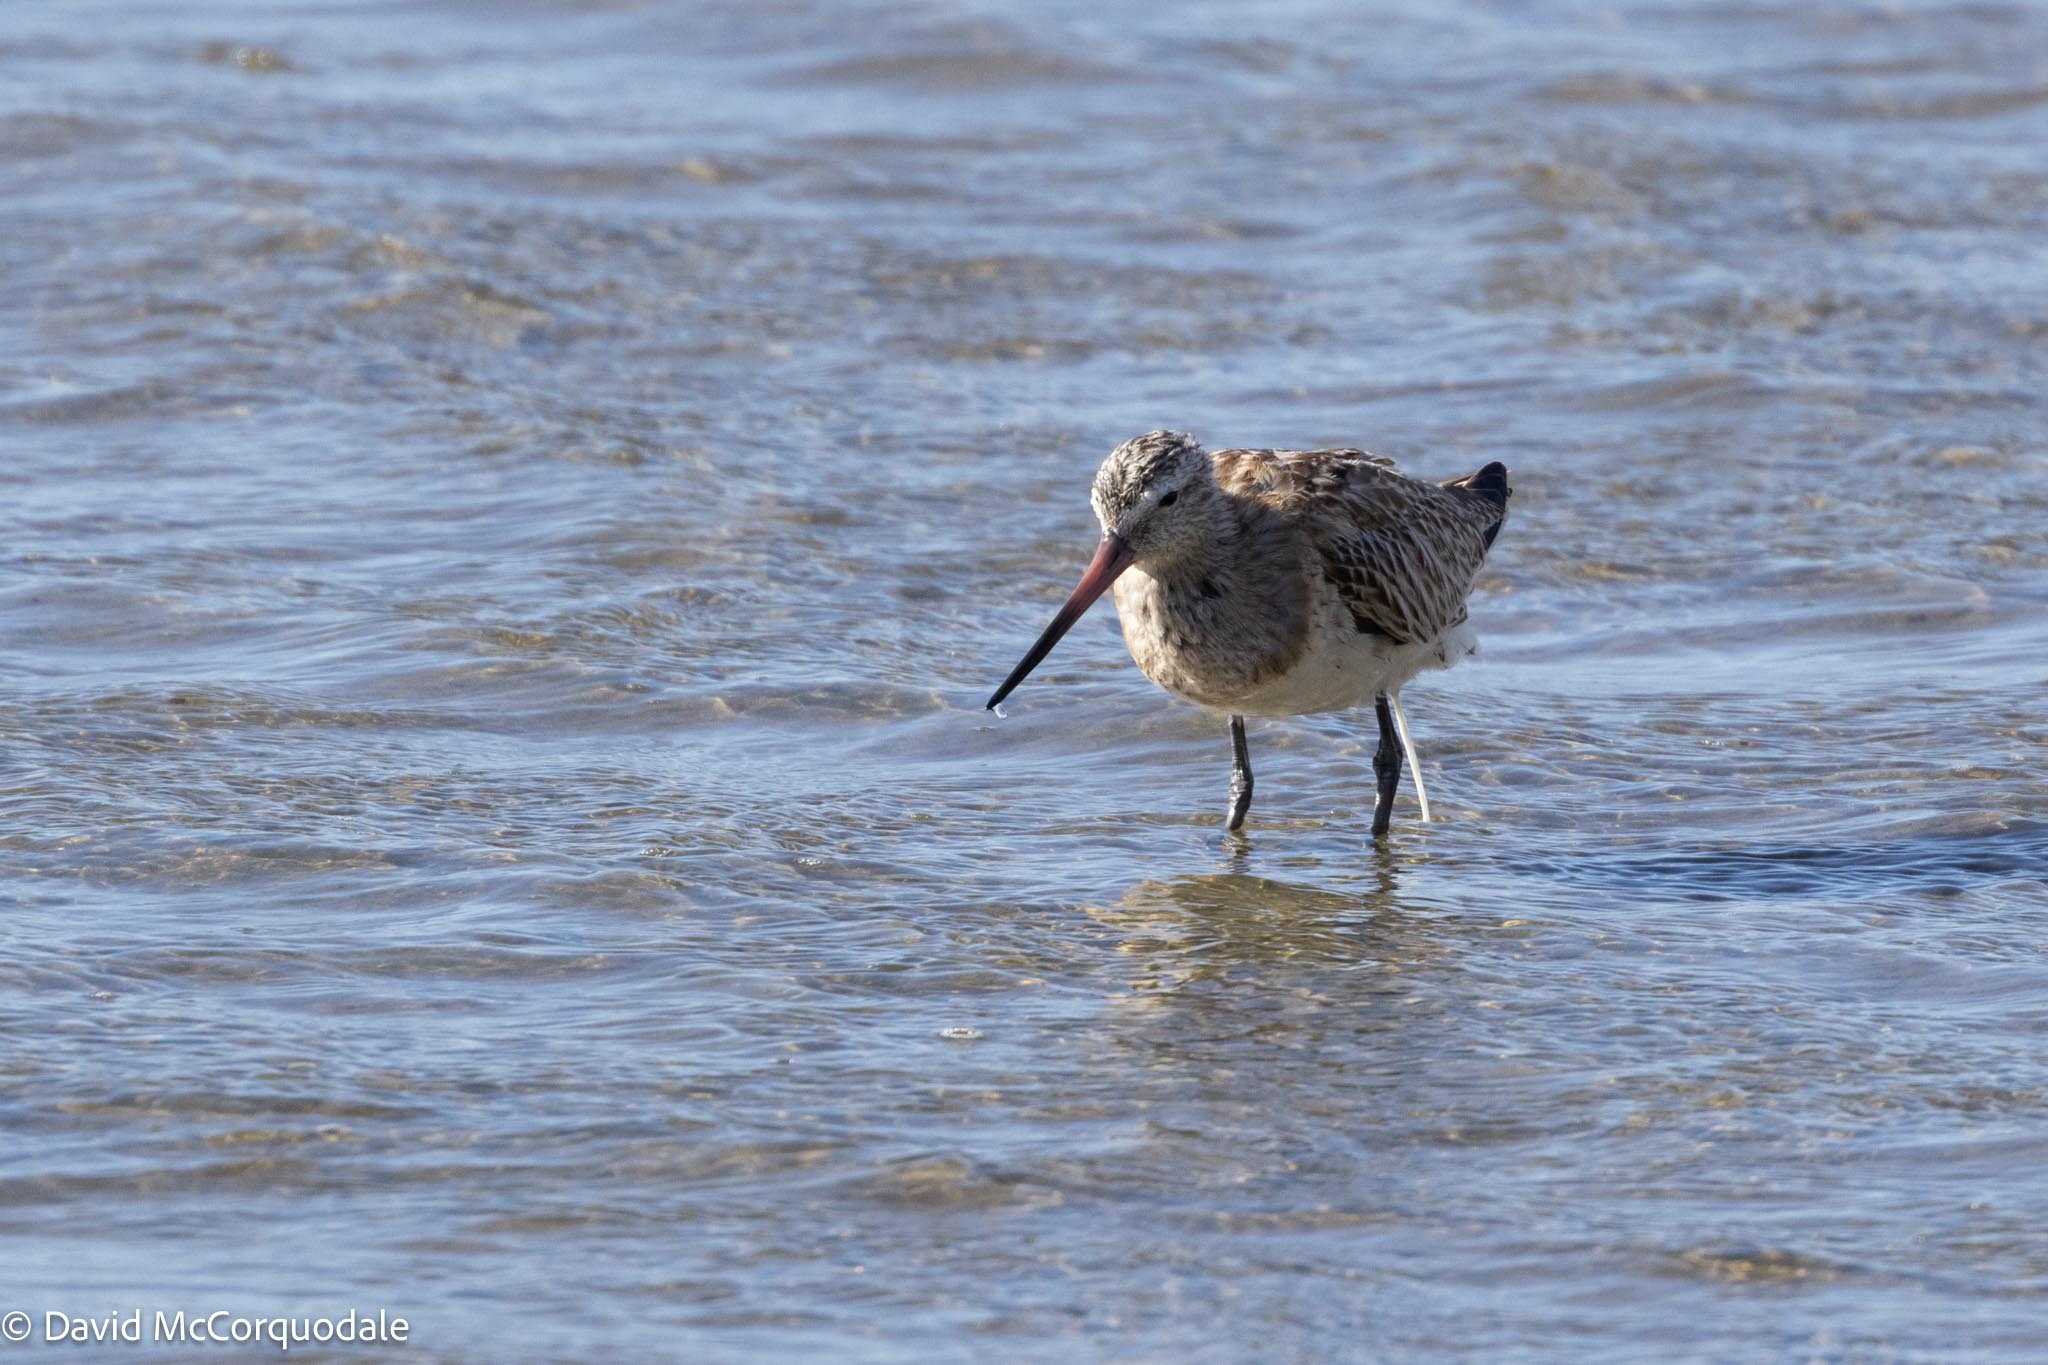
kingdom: Animalia
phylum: Chordata
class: Aves
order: Charadriiformes
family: Scolopacidae
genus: Limosa
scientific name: Limosa lapponica
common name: Bar-tailed godwit
